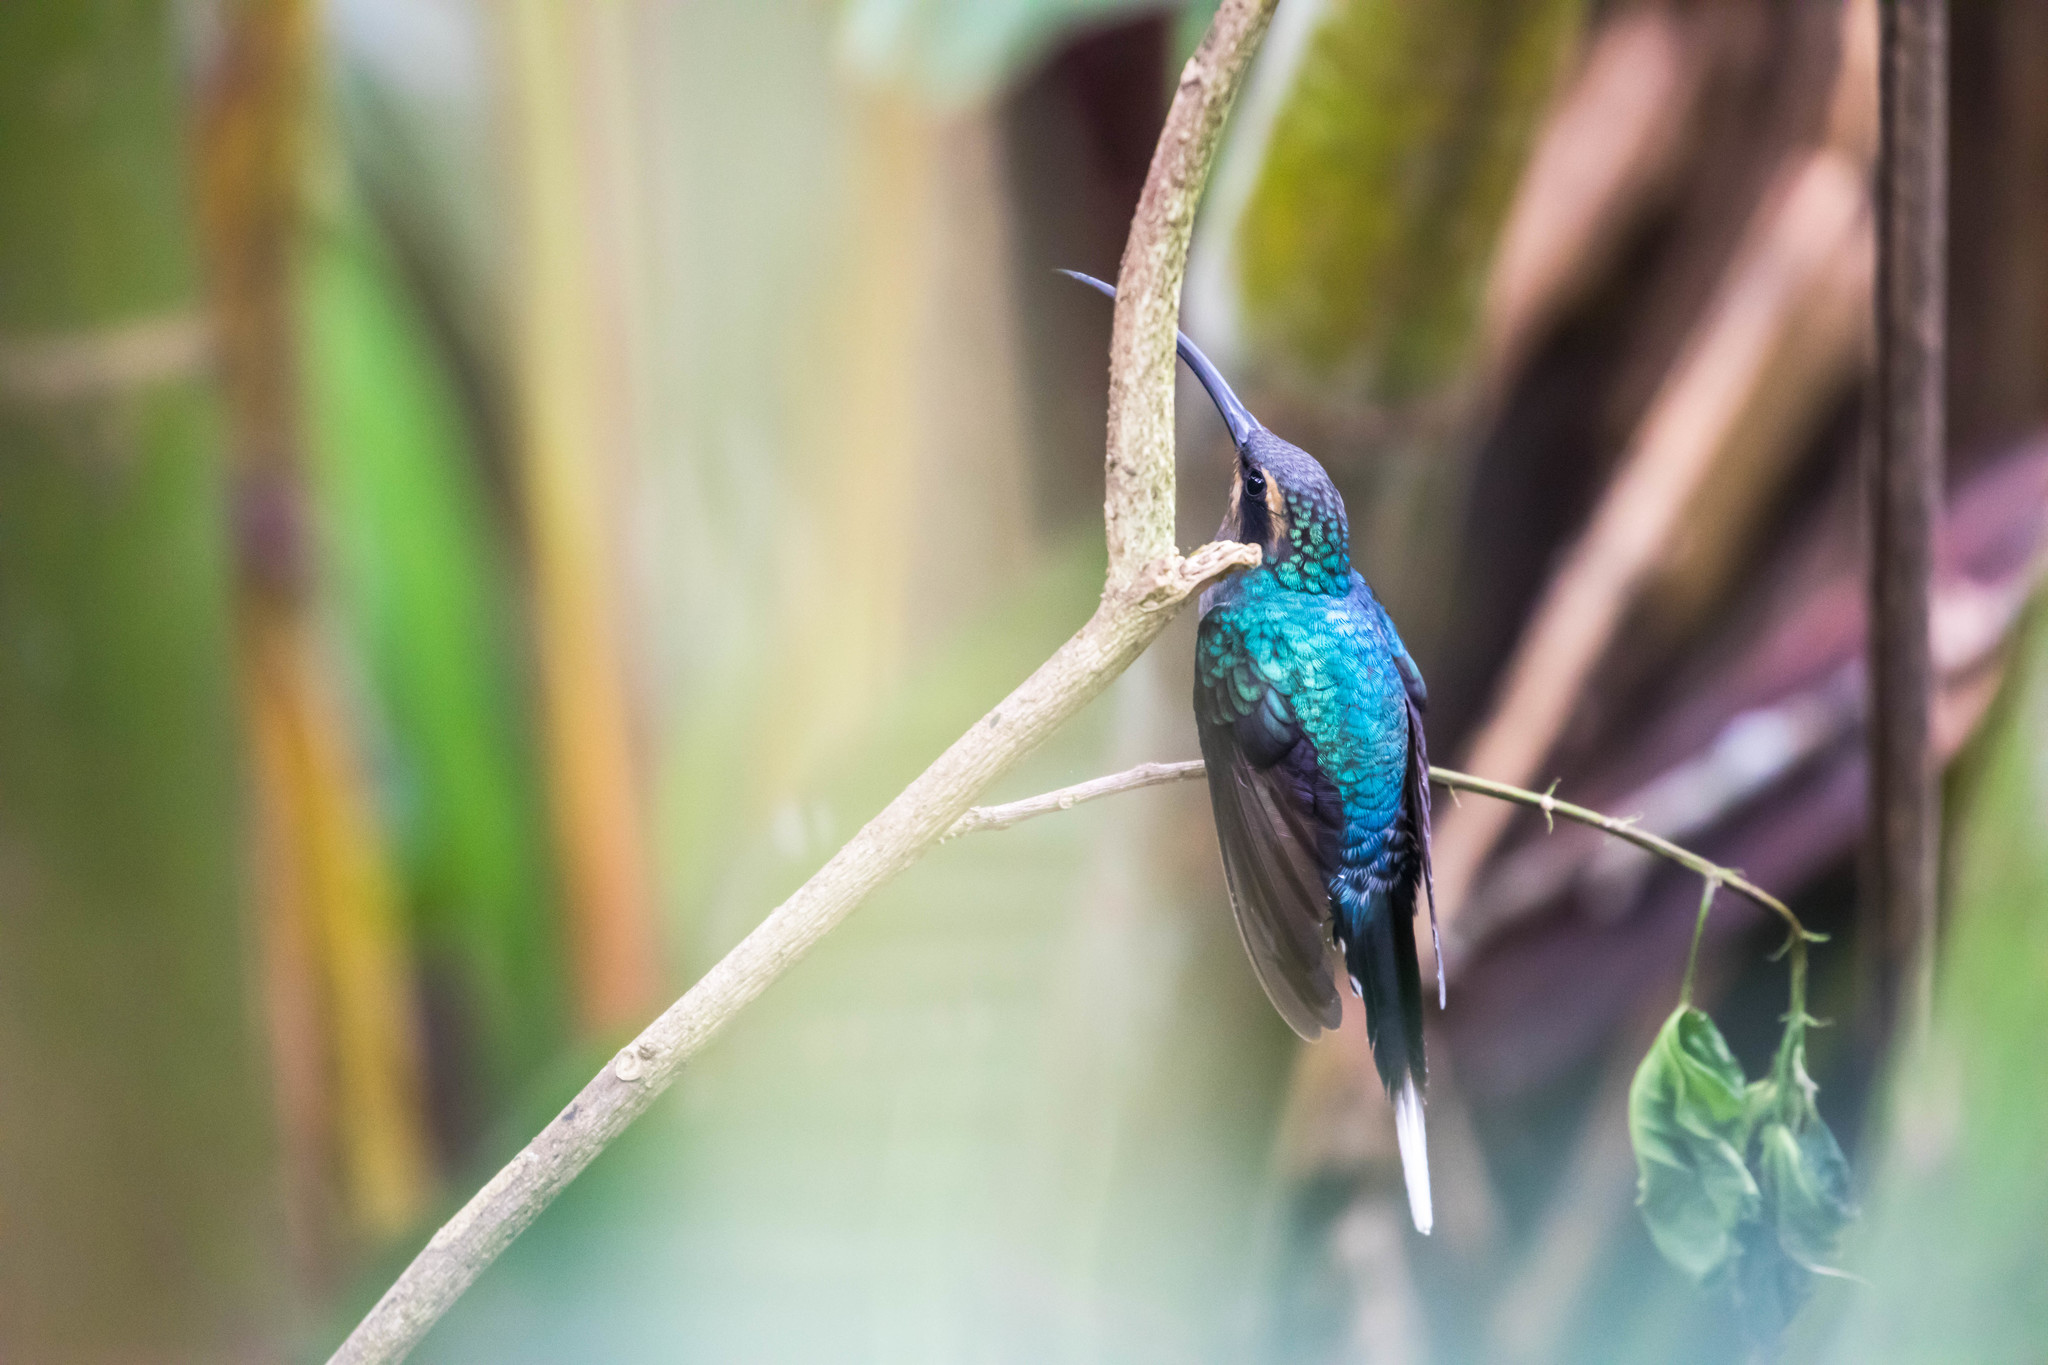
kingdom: Animalia
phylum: Chordata
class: Aves
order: Apodiformes
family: Trochilidae
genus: Phaethornis
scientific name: Phaethornis guy
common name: Green hermit
